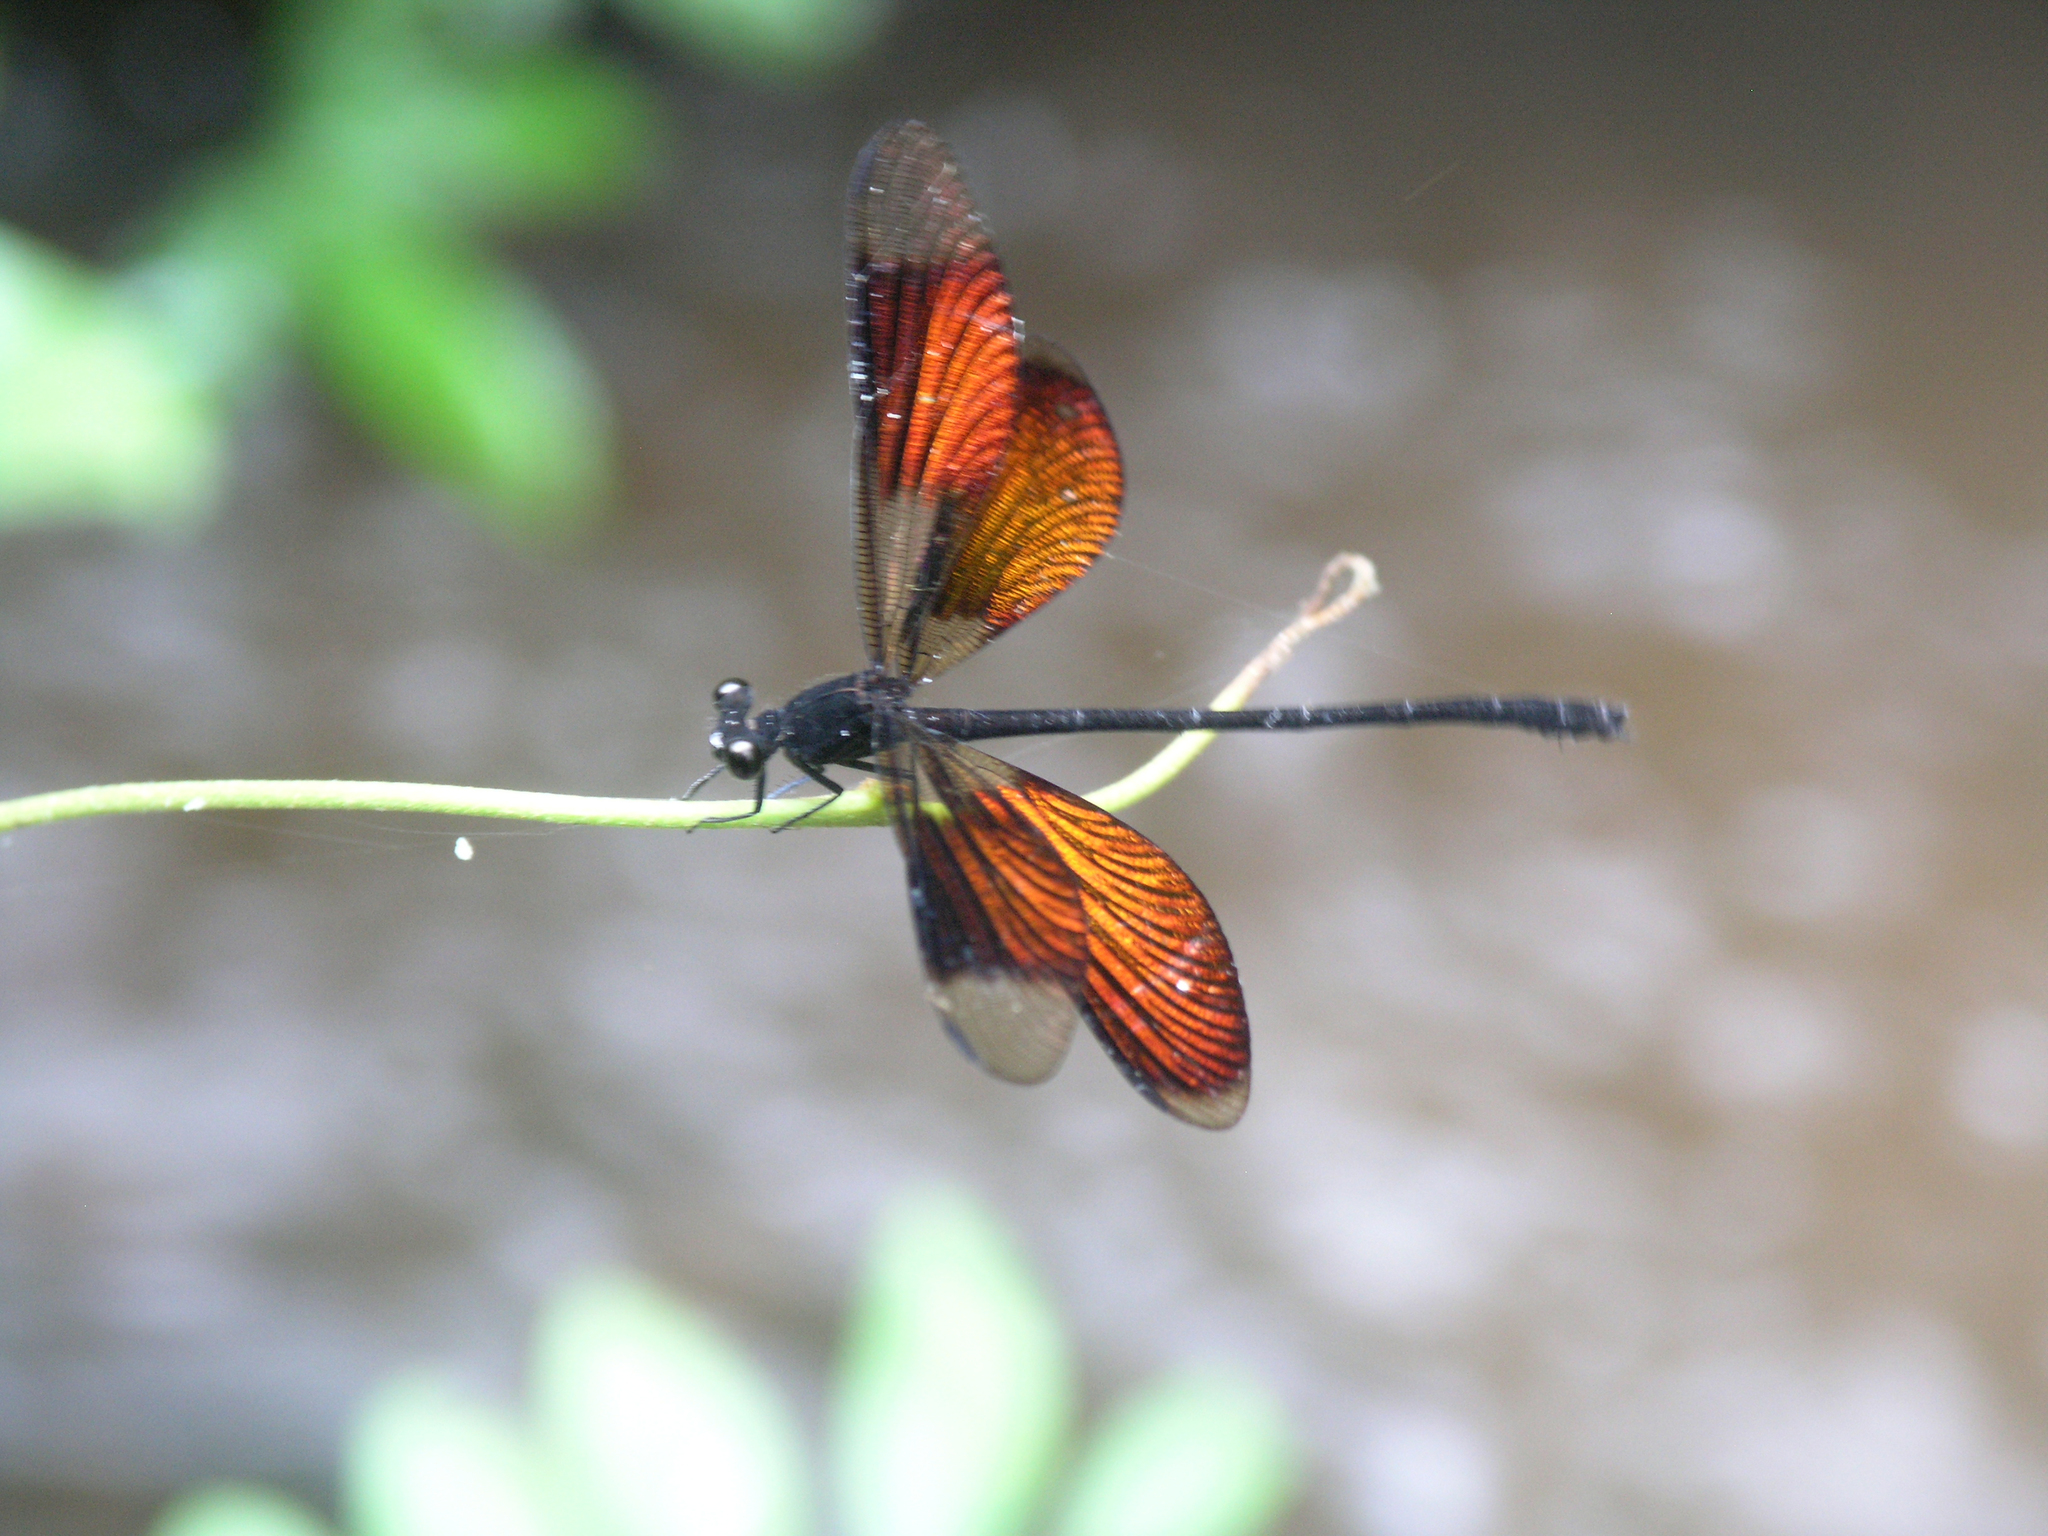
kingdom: Animalia
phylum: Arthropoda
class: Insecta
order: Odonata
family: Euphaeidae
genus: Euphaea
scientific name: Euphaea inouei
